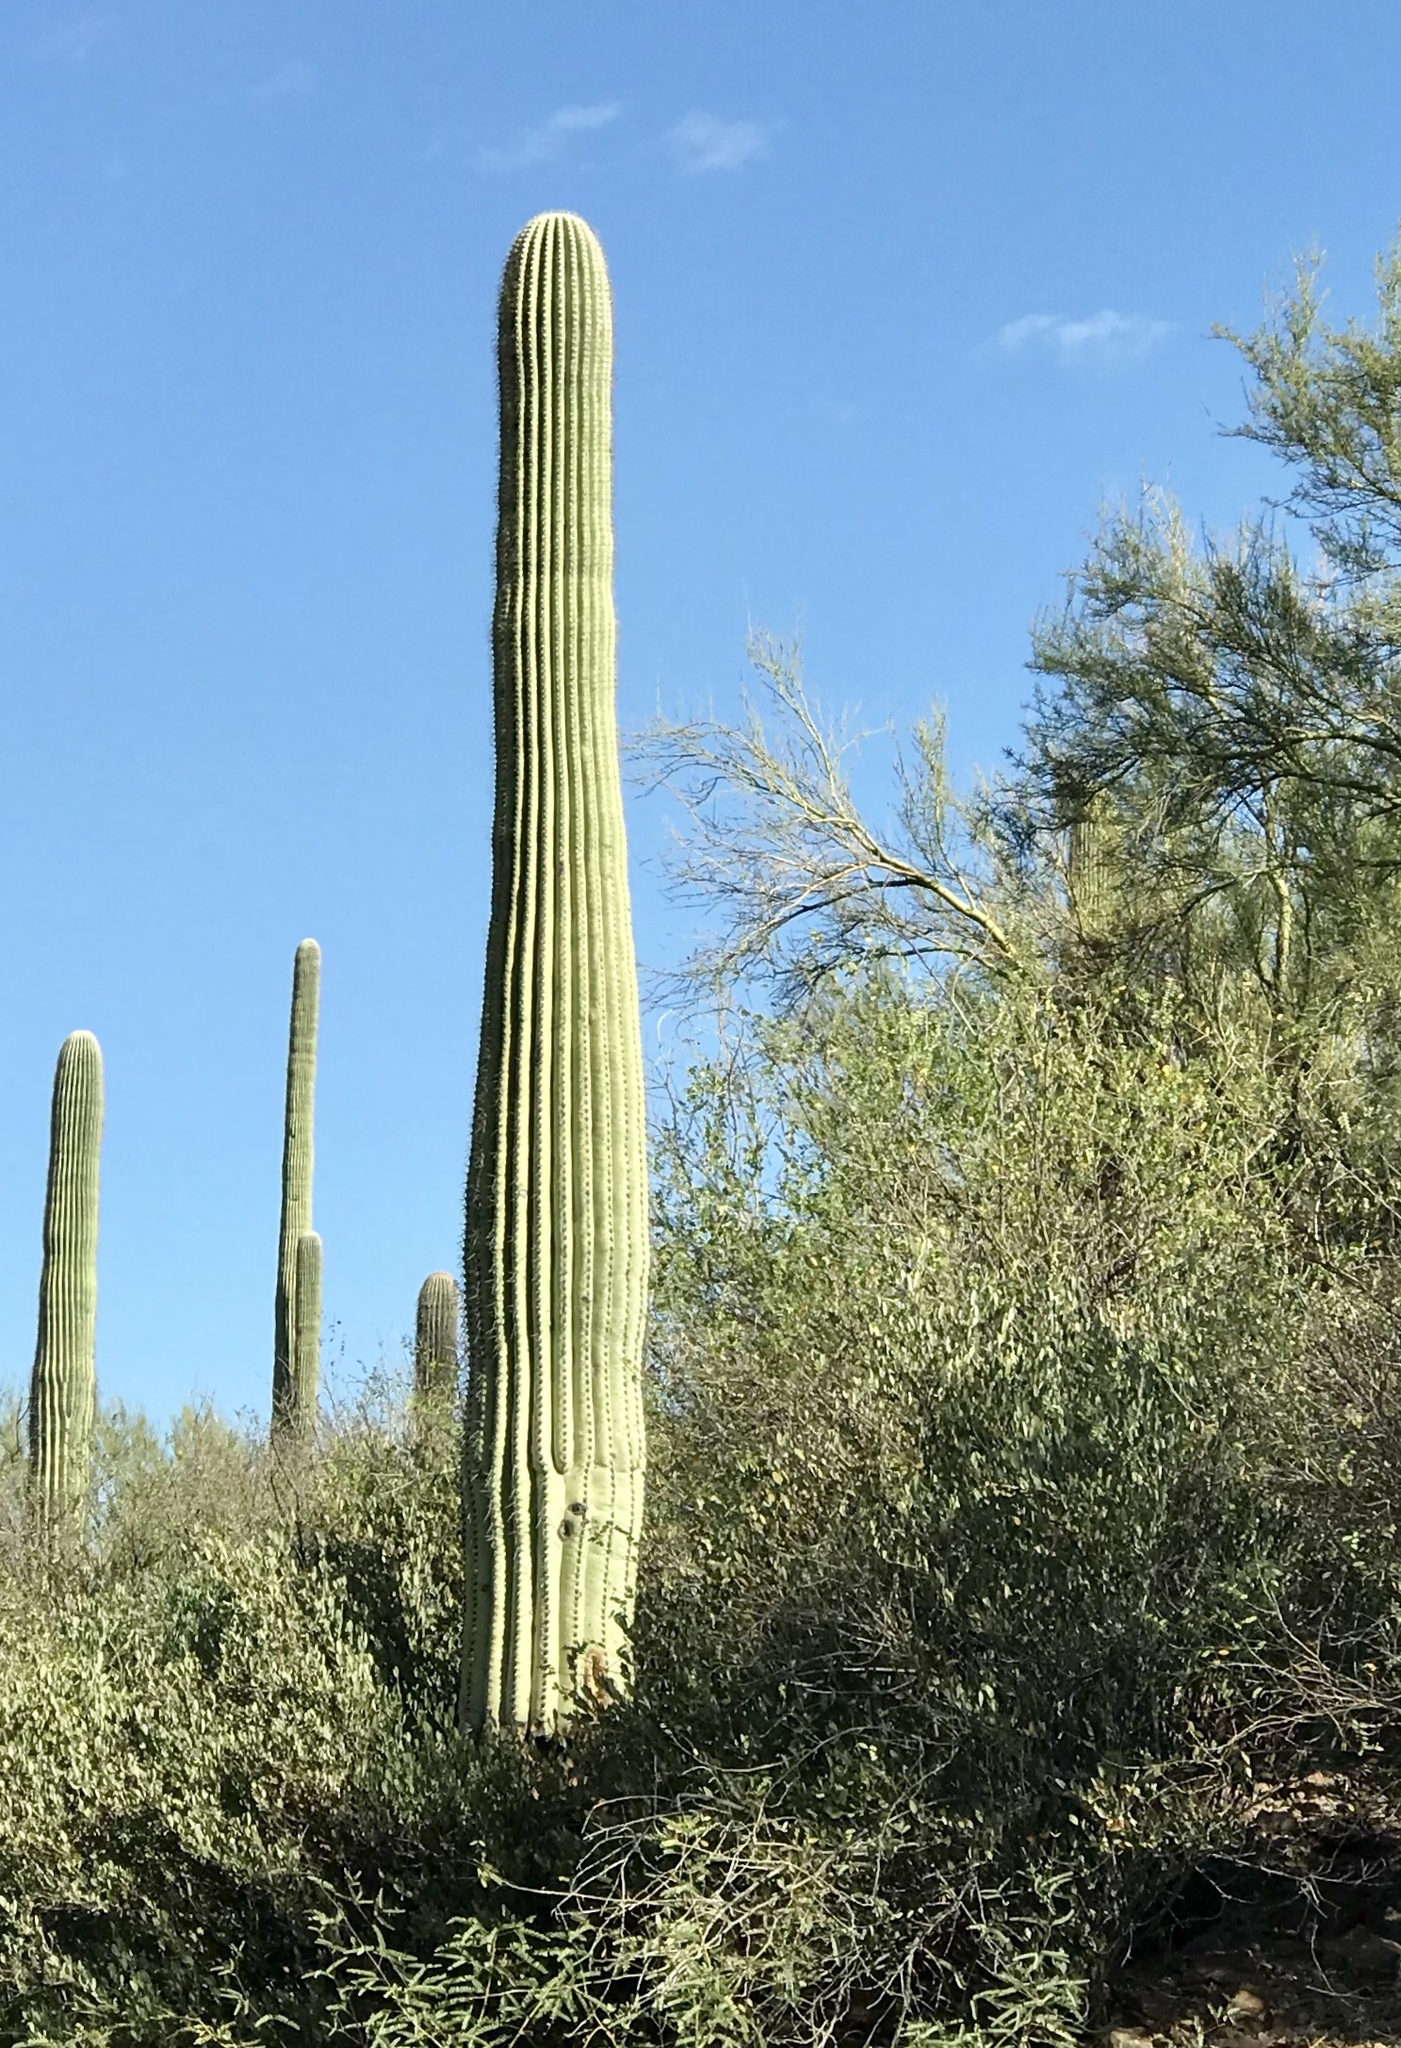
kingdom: Plantae
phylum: Tracheophyta
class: Magnoliopsida
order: Caryophyllales
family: Cactaceae
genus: Carnegiea
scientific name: Carnegiea gigantea
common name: Saguaro
